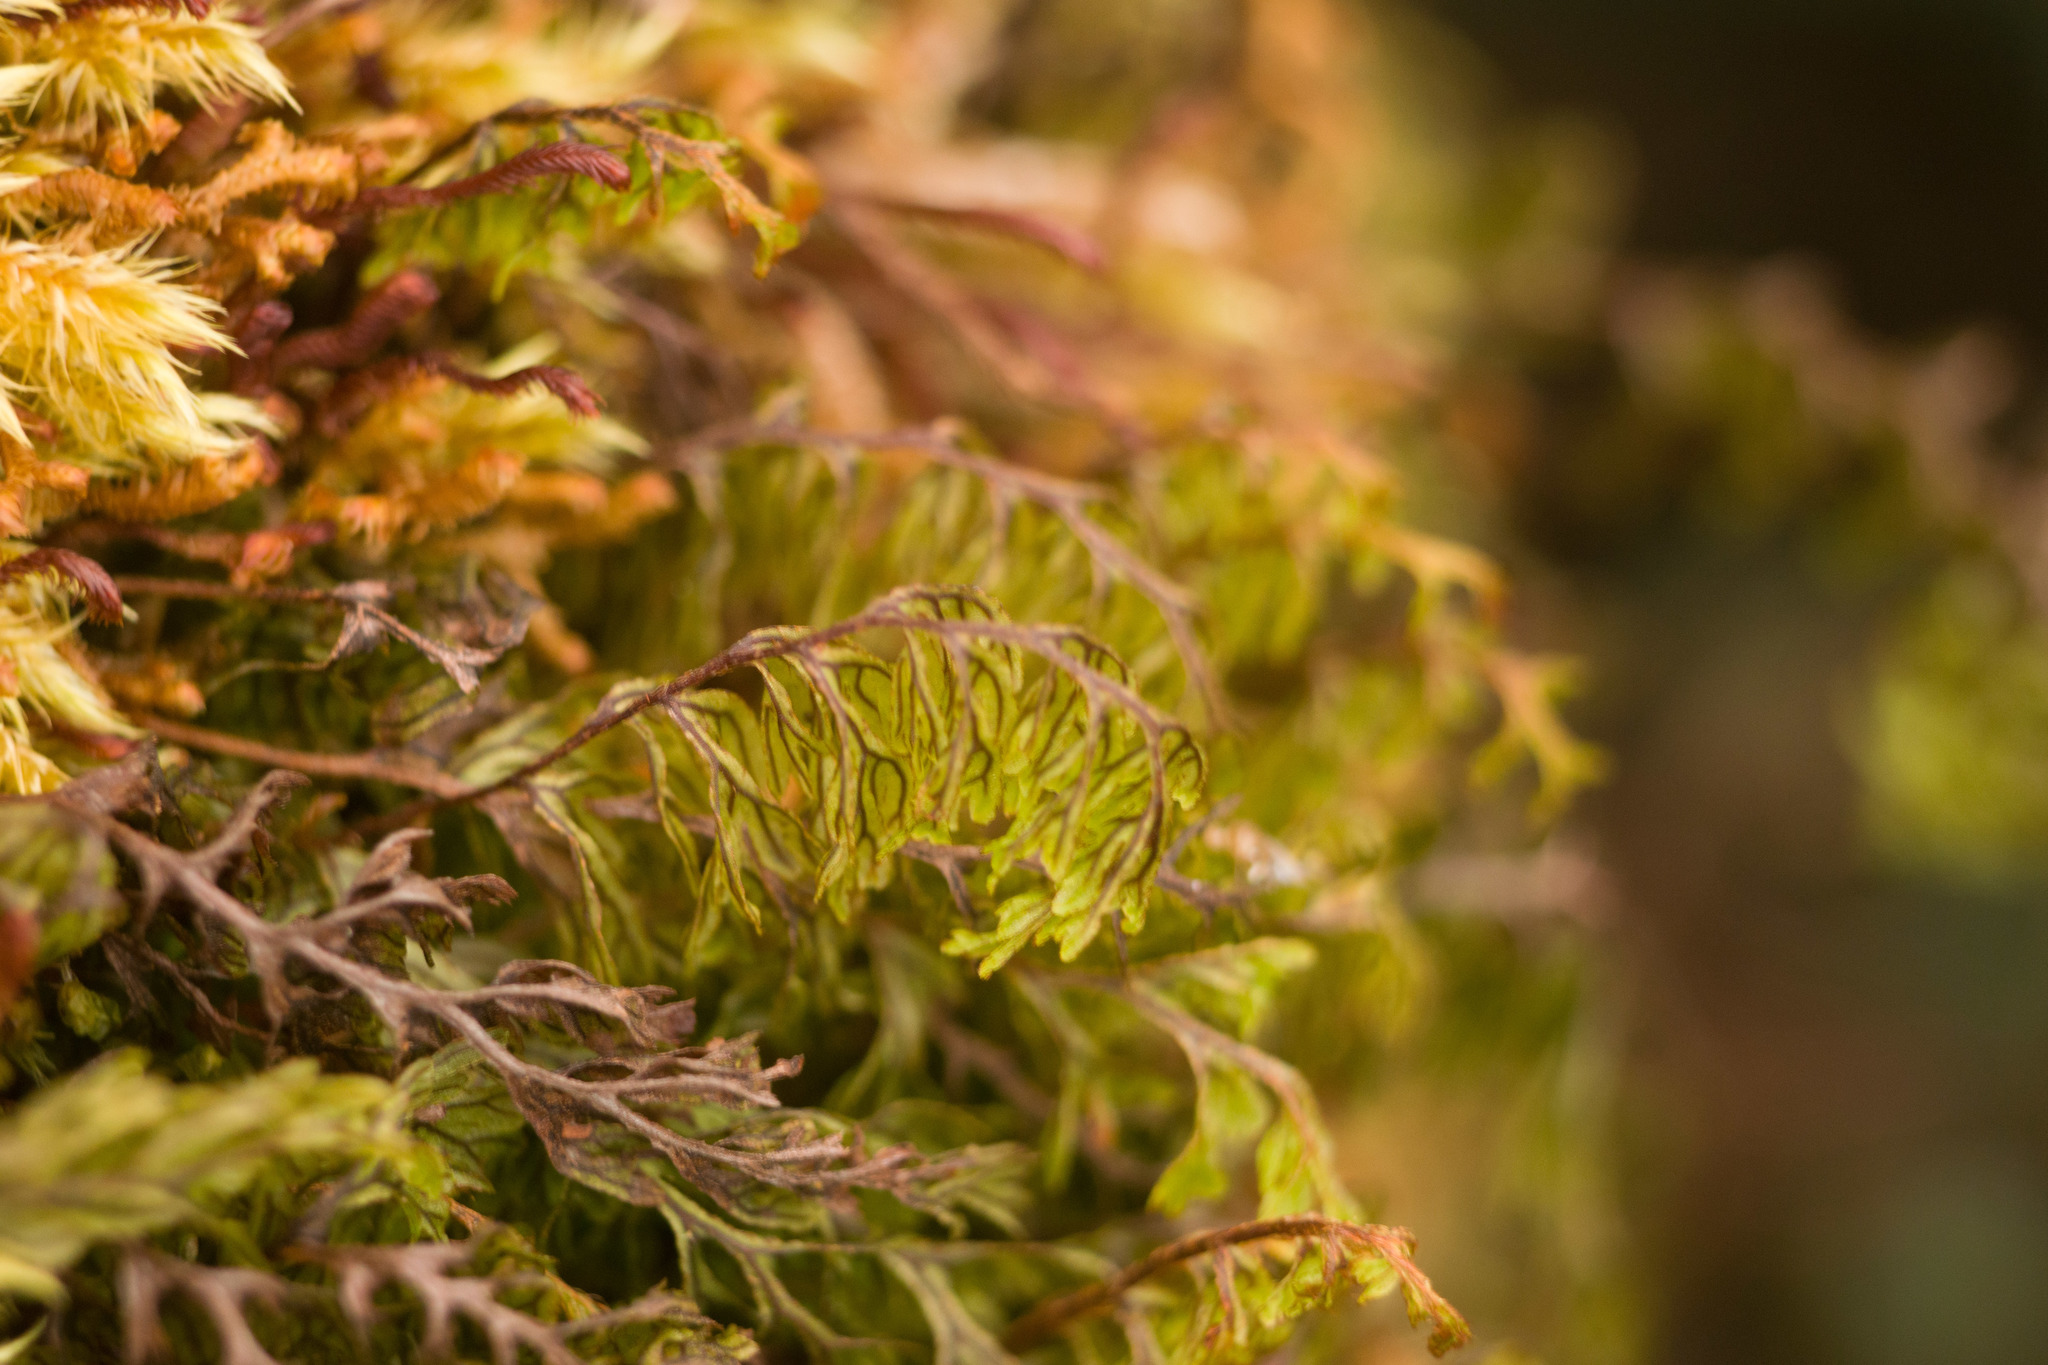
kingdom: Plantae
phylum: Tracheophyta
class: Polypodiopsida
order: Hymenophyllales
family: Hymenophyllaceae
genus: Hymenophyllum
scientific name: Hymenophyllum lanceolatum
